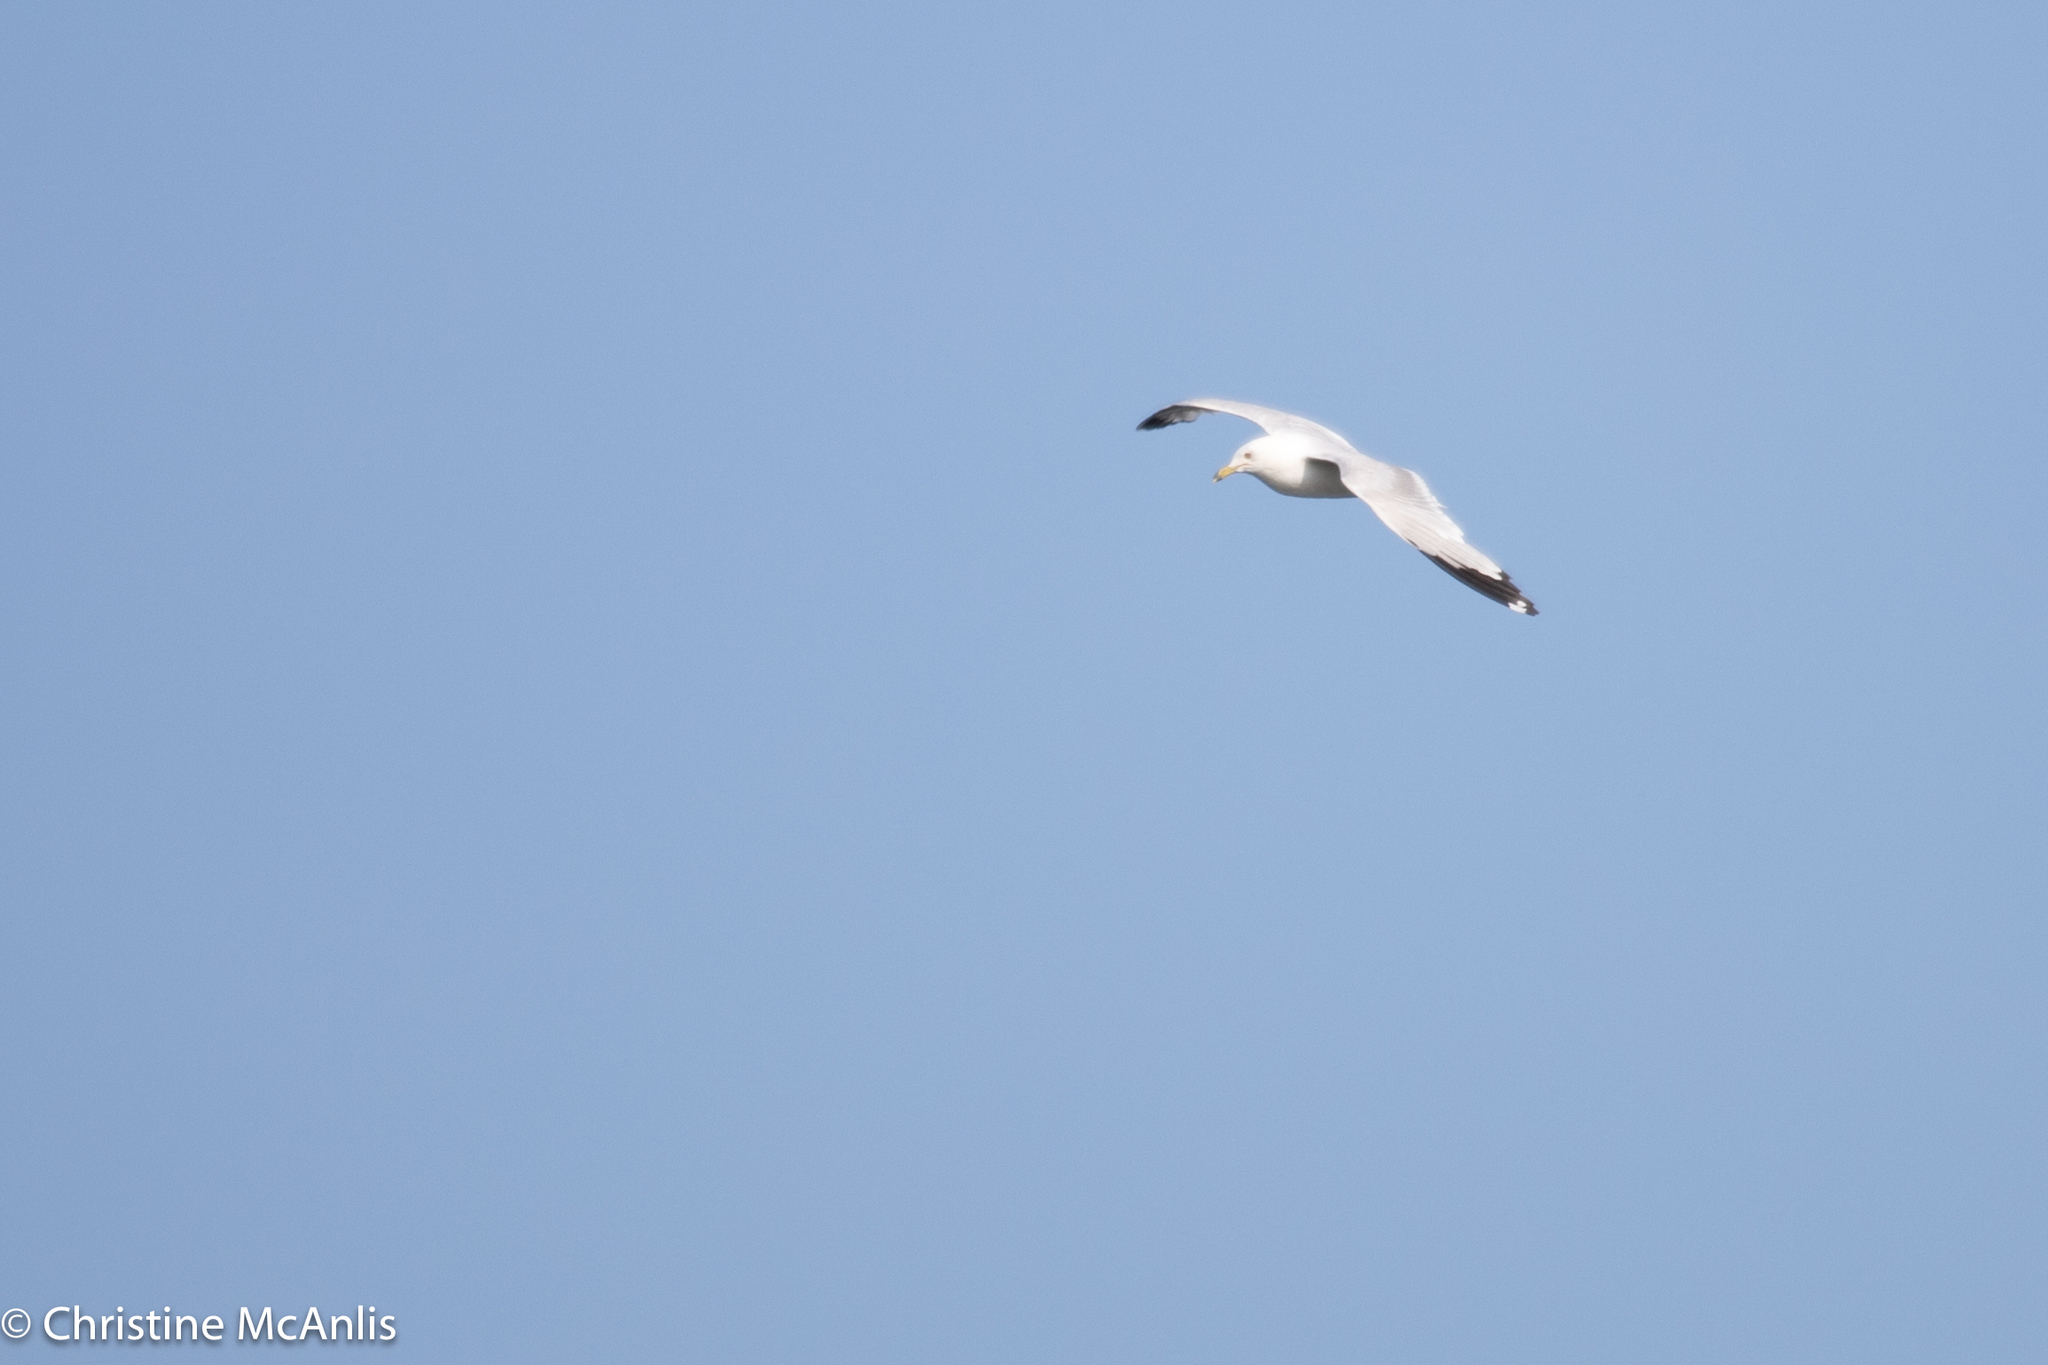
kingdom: Animalia
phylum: Chordata
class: Aves
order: Charadriiformes
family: Laridae
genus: Larus
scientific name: Larus delawarensis
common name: Ring-billed gull
